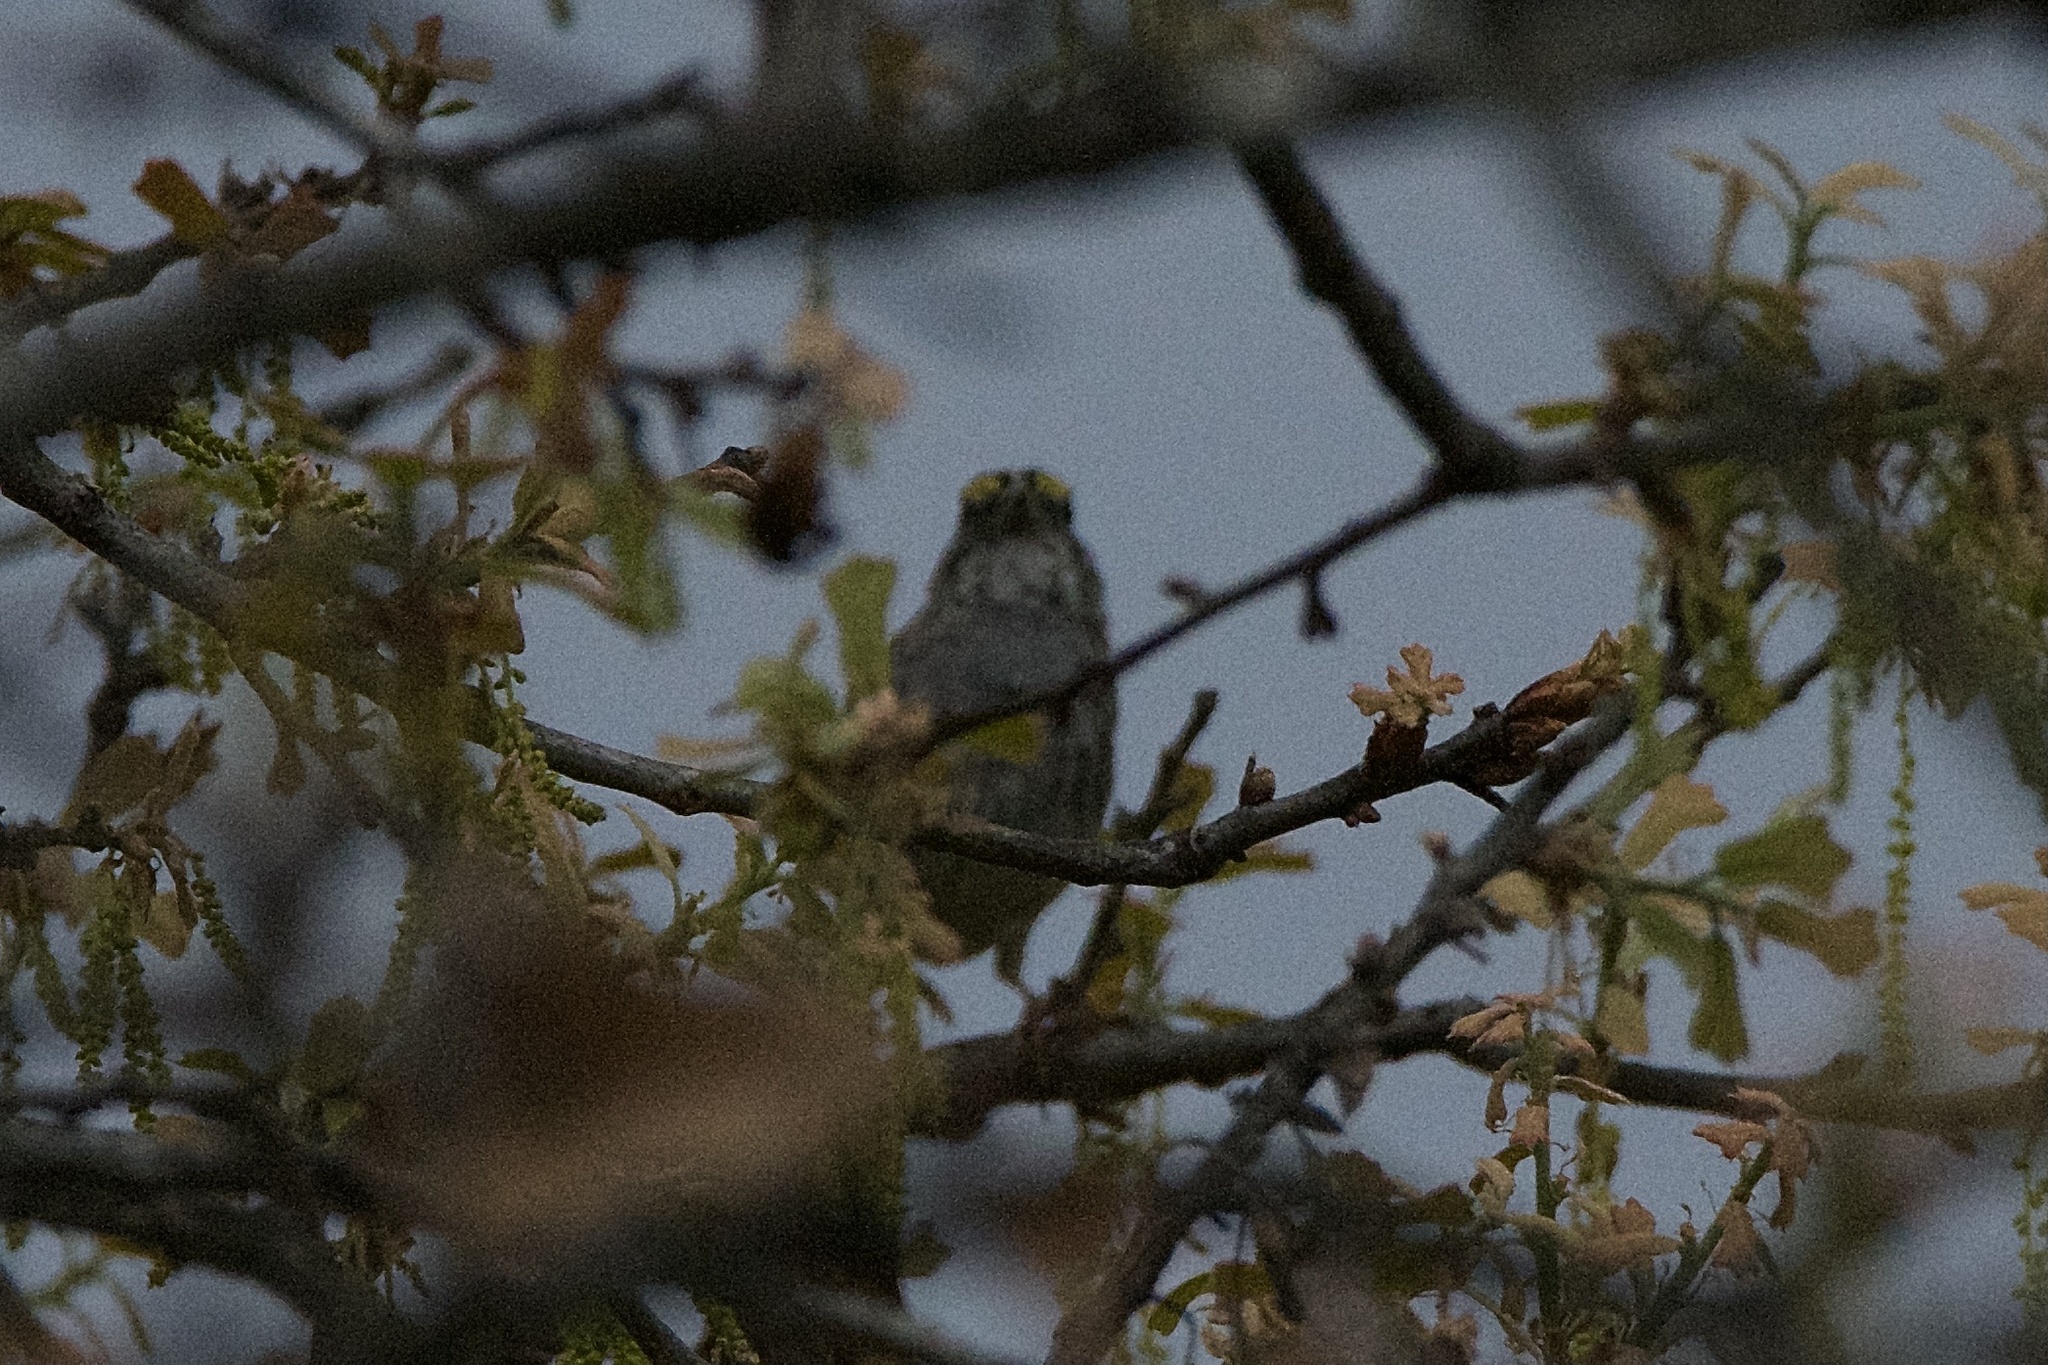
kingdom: Animalia
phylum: Chordata
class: Aves
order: Passeriformes
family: Passerellidae
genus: Zonotrichia
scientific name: Zonotrichia albicollis
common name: White-throated sparrow
